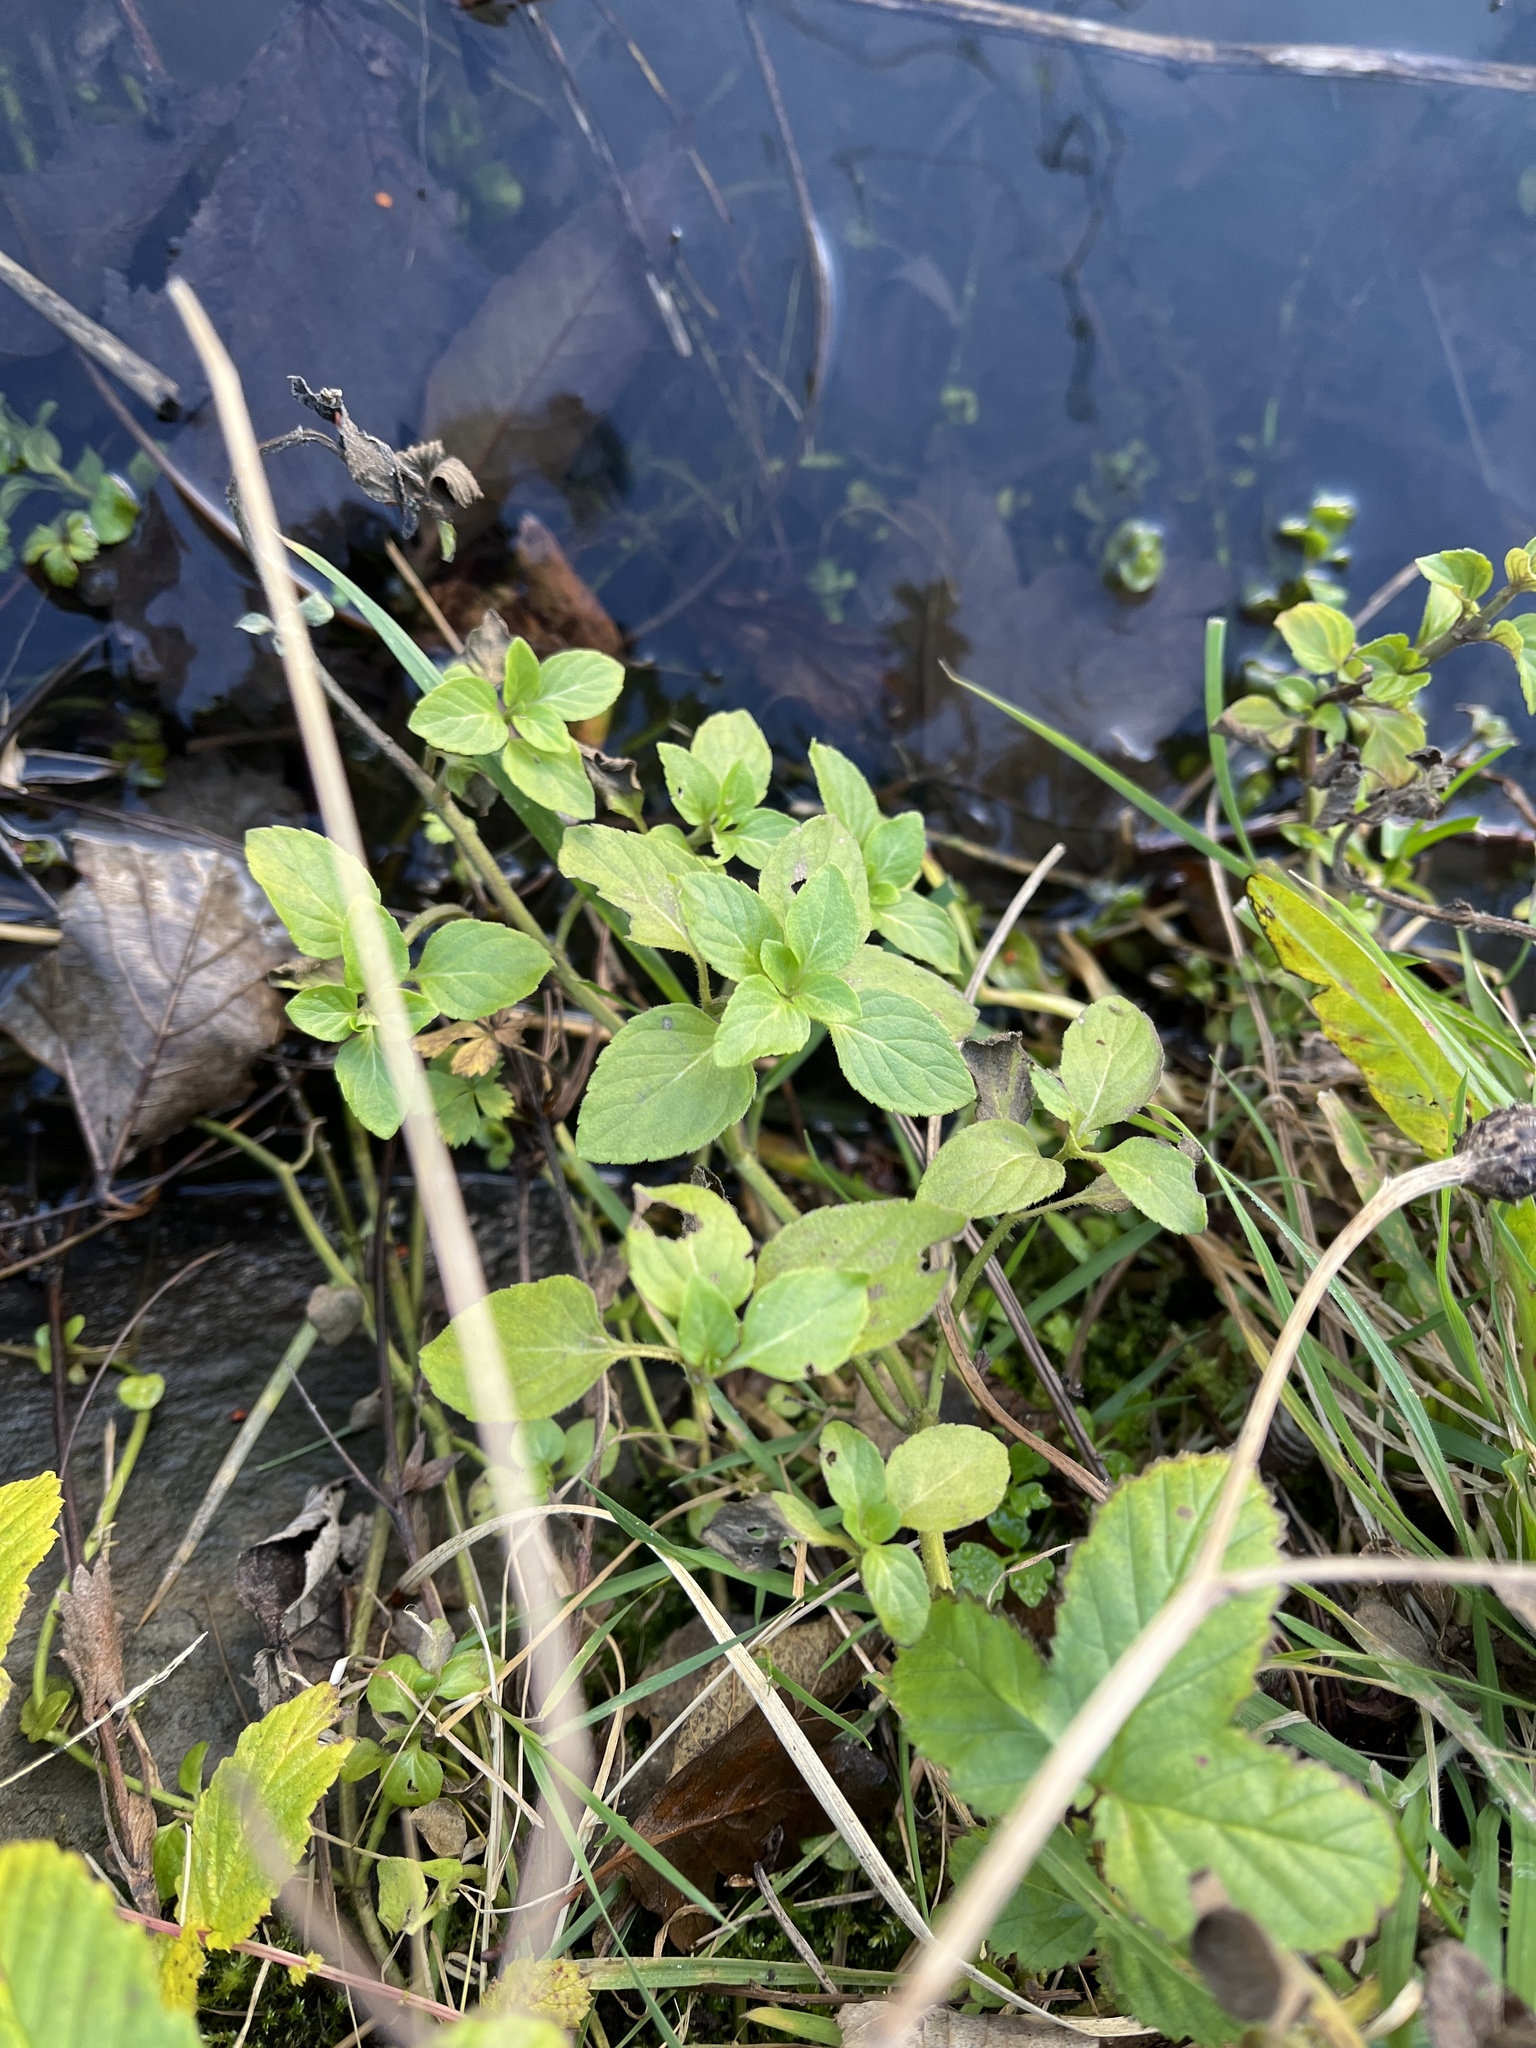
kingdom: Plantae
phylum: Tracheophyta
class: Magnoliopsida
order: Lamiales
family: Lamiaceae
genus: Mentha
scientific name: Mentha aquatica
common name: Water mint
